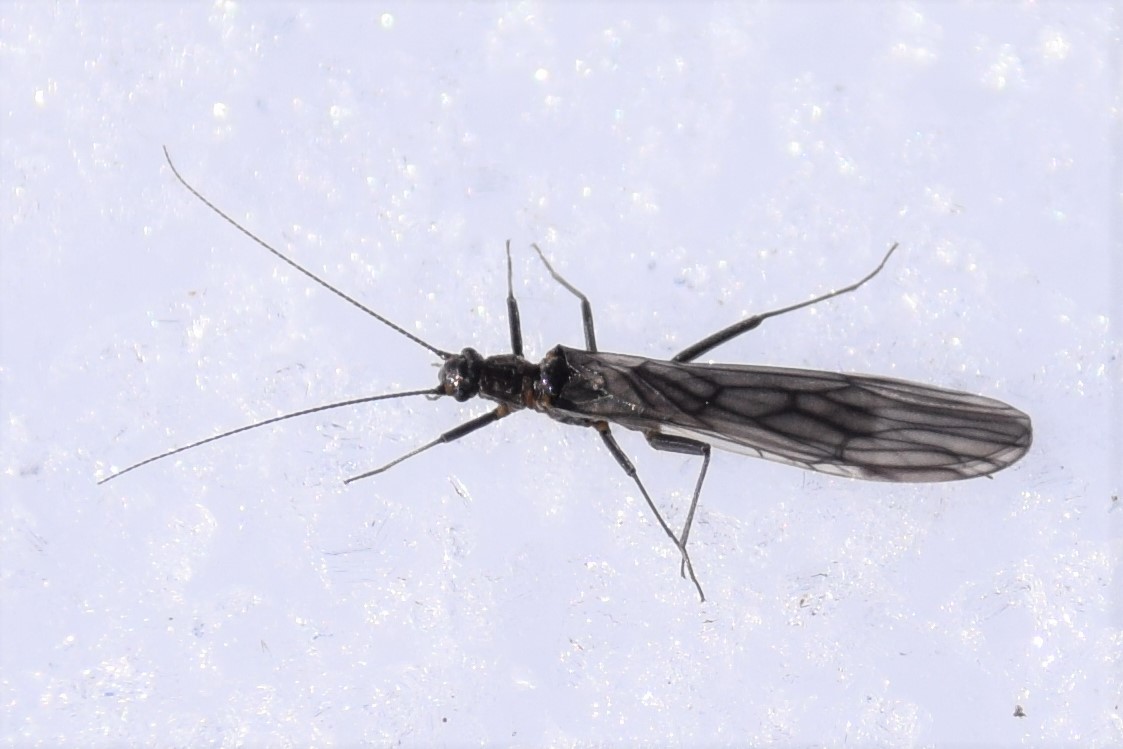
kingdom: Animalia
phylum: Arthropoda
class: Insecta
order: Plecoptera
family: Capniidae
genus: Bolshecapnia
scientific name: Bolshecapnia milami
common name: Glacier snowfly
